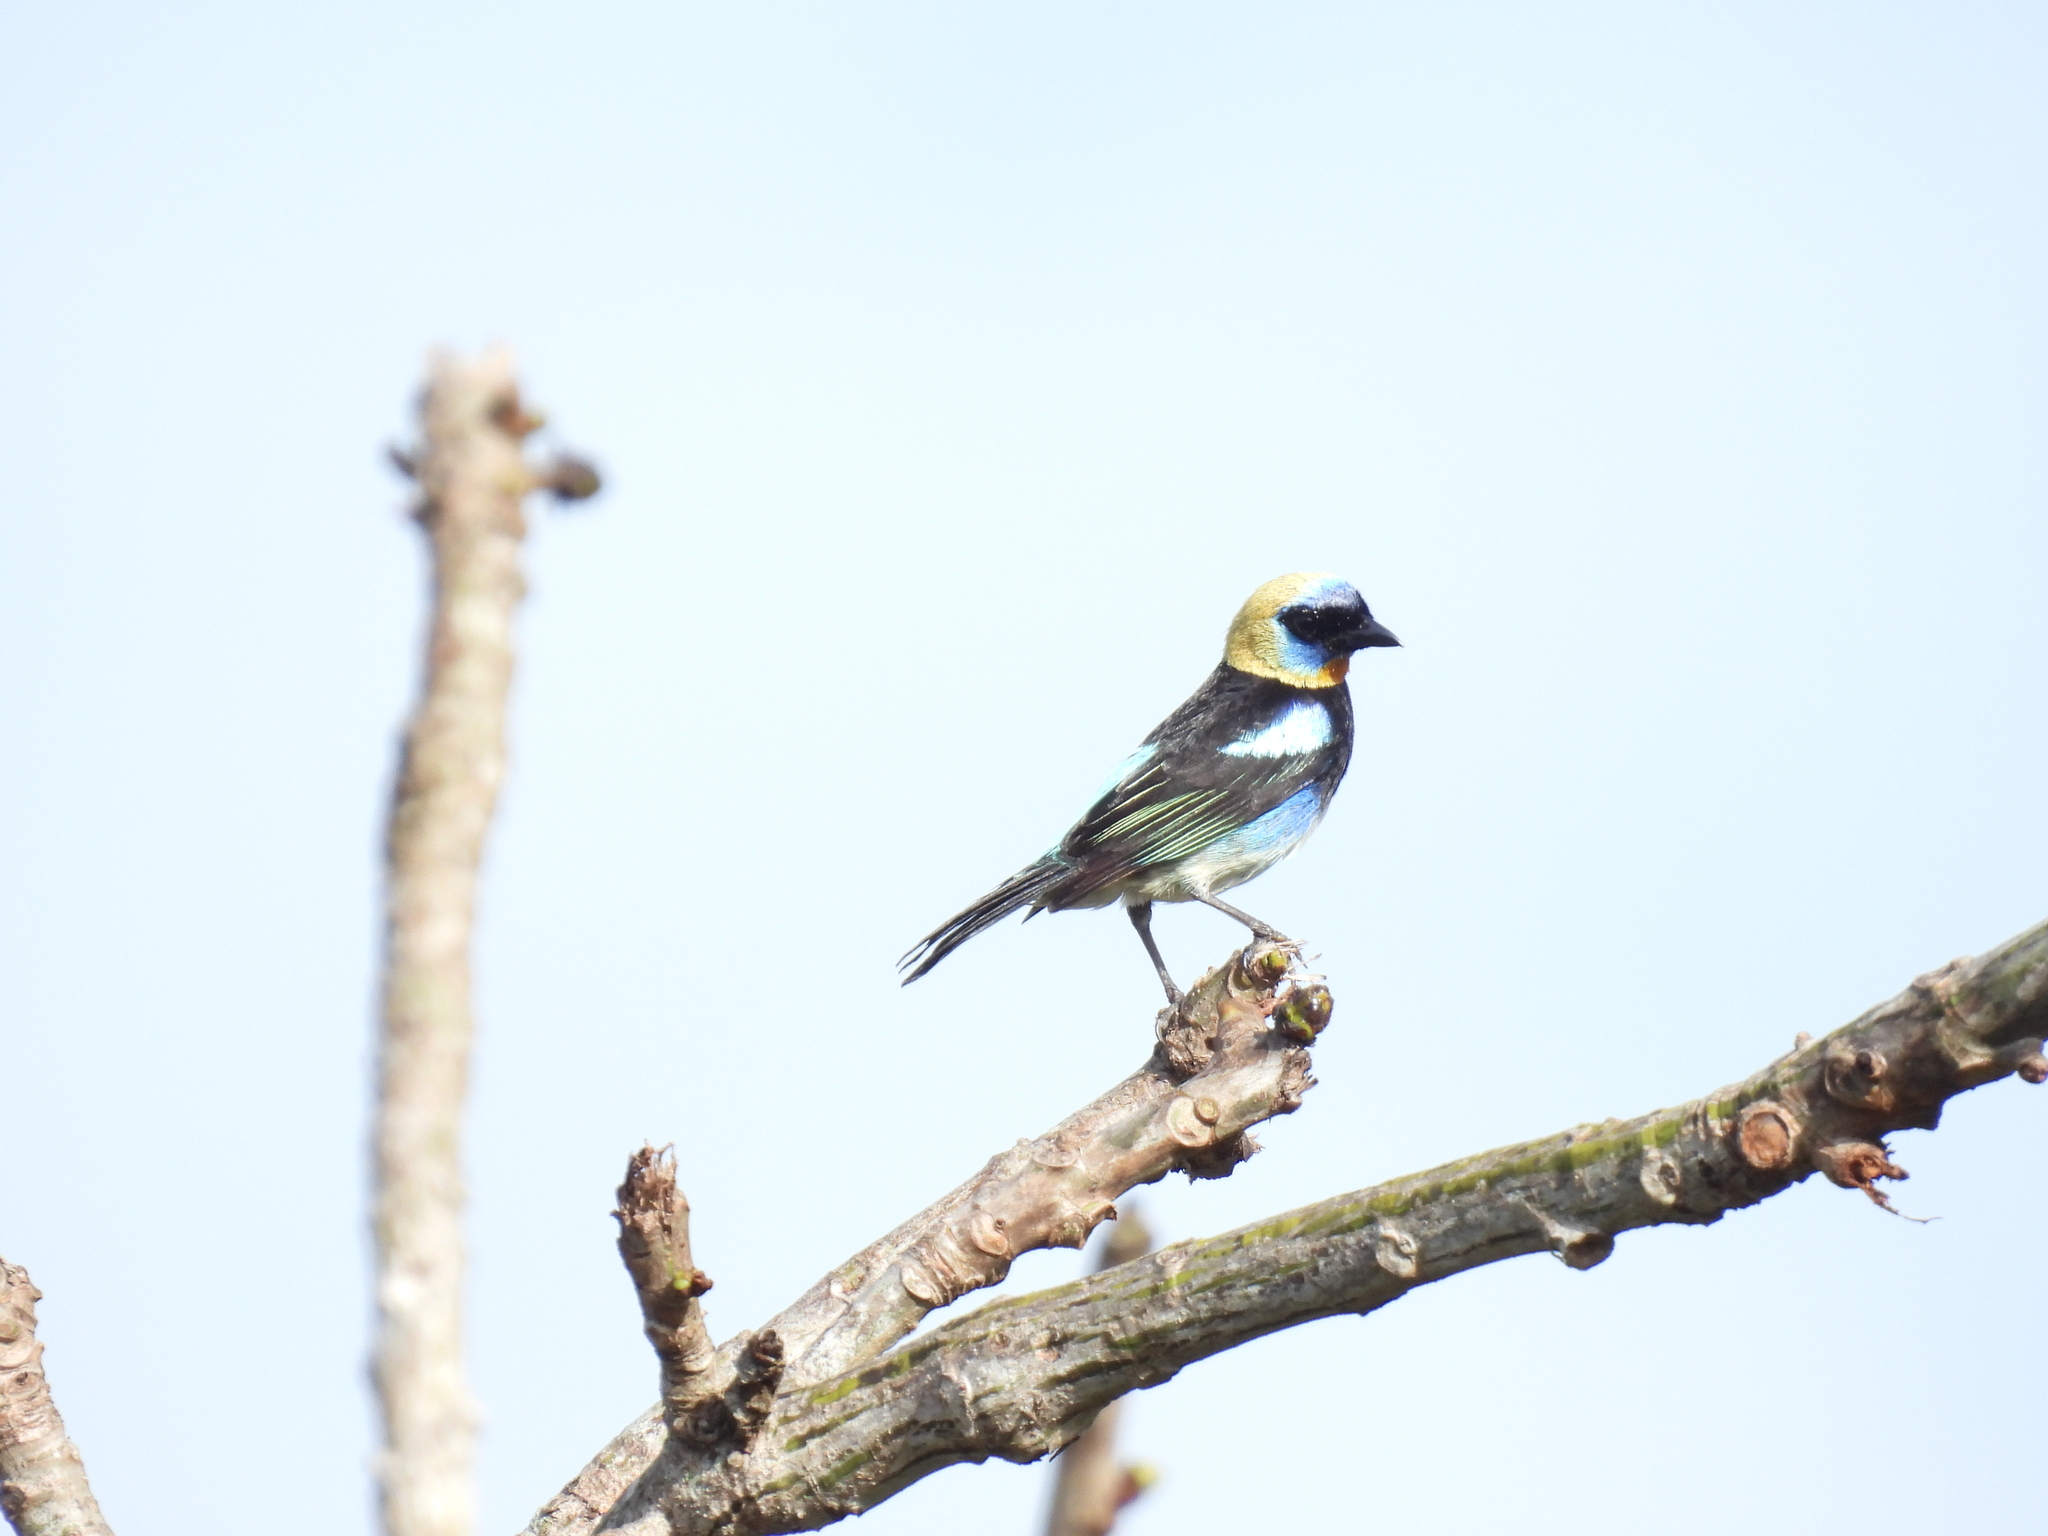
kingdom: Animalia
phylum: Chordata
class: Aves
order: Passeriformes
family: Thraupidae
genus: Stilpnia
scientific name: Stilpnia larvata
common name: Golden-hooded tanager
